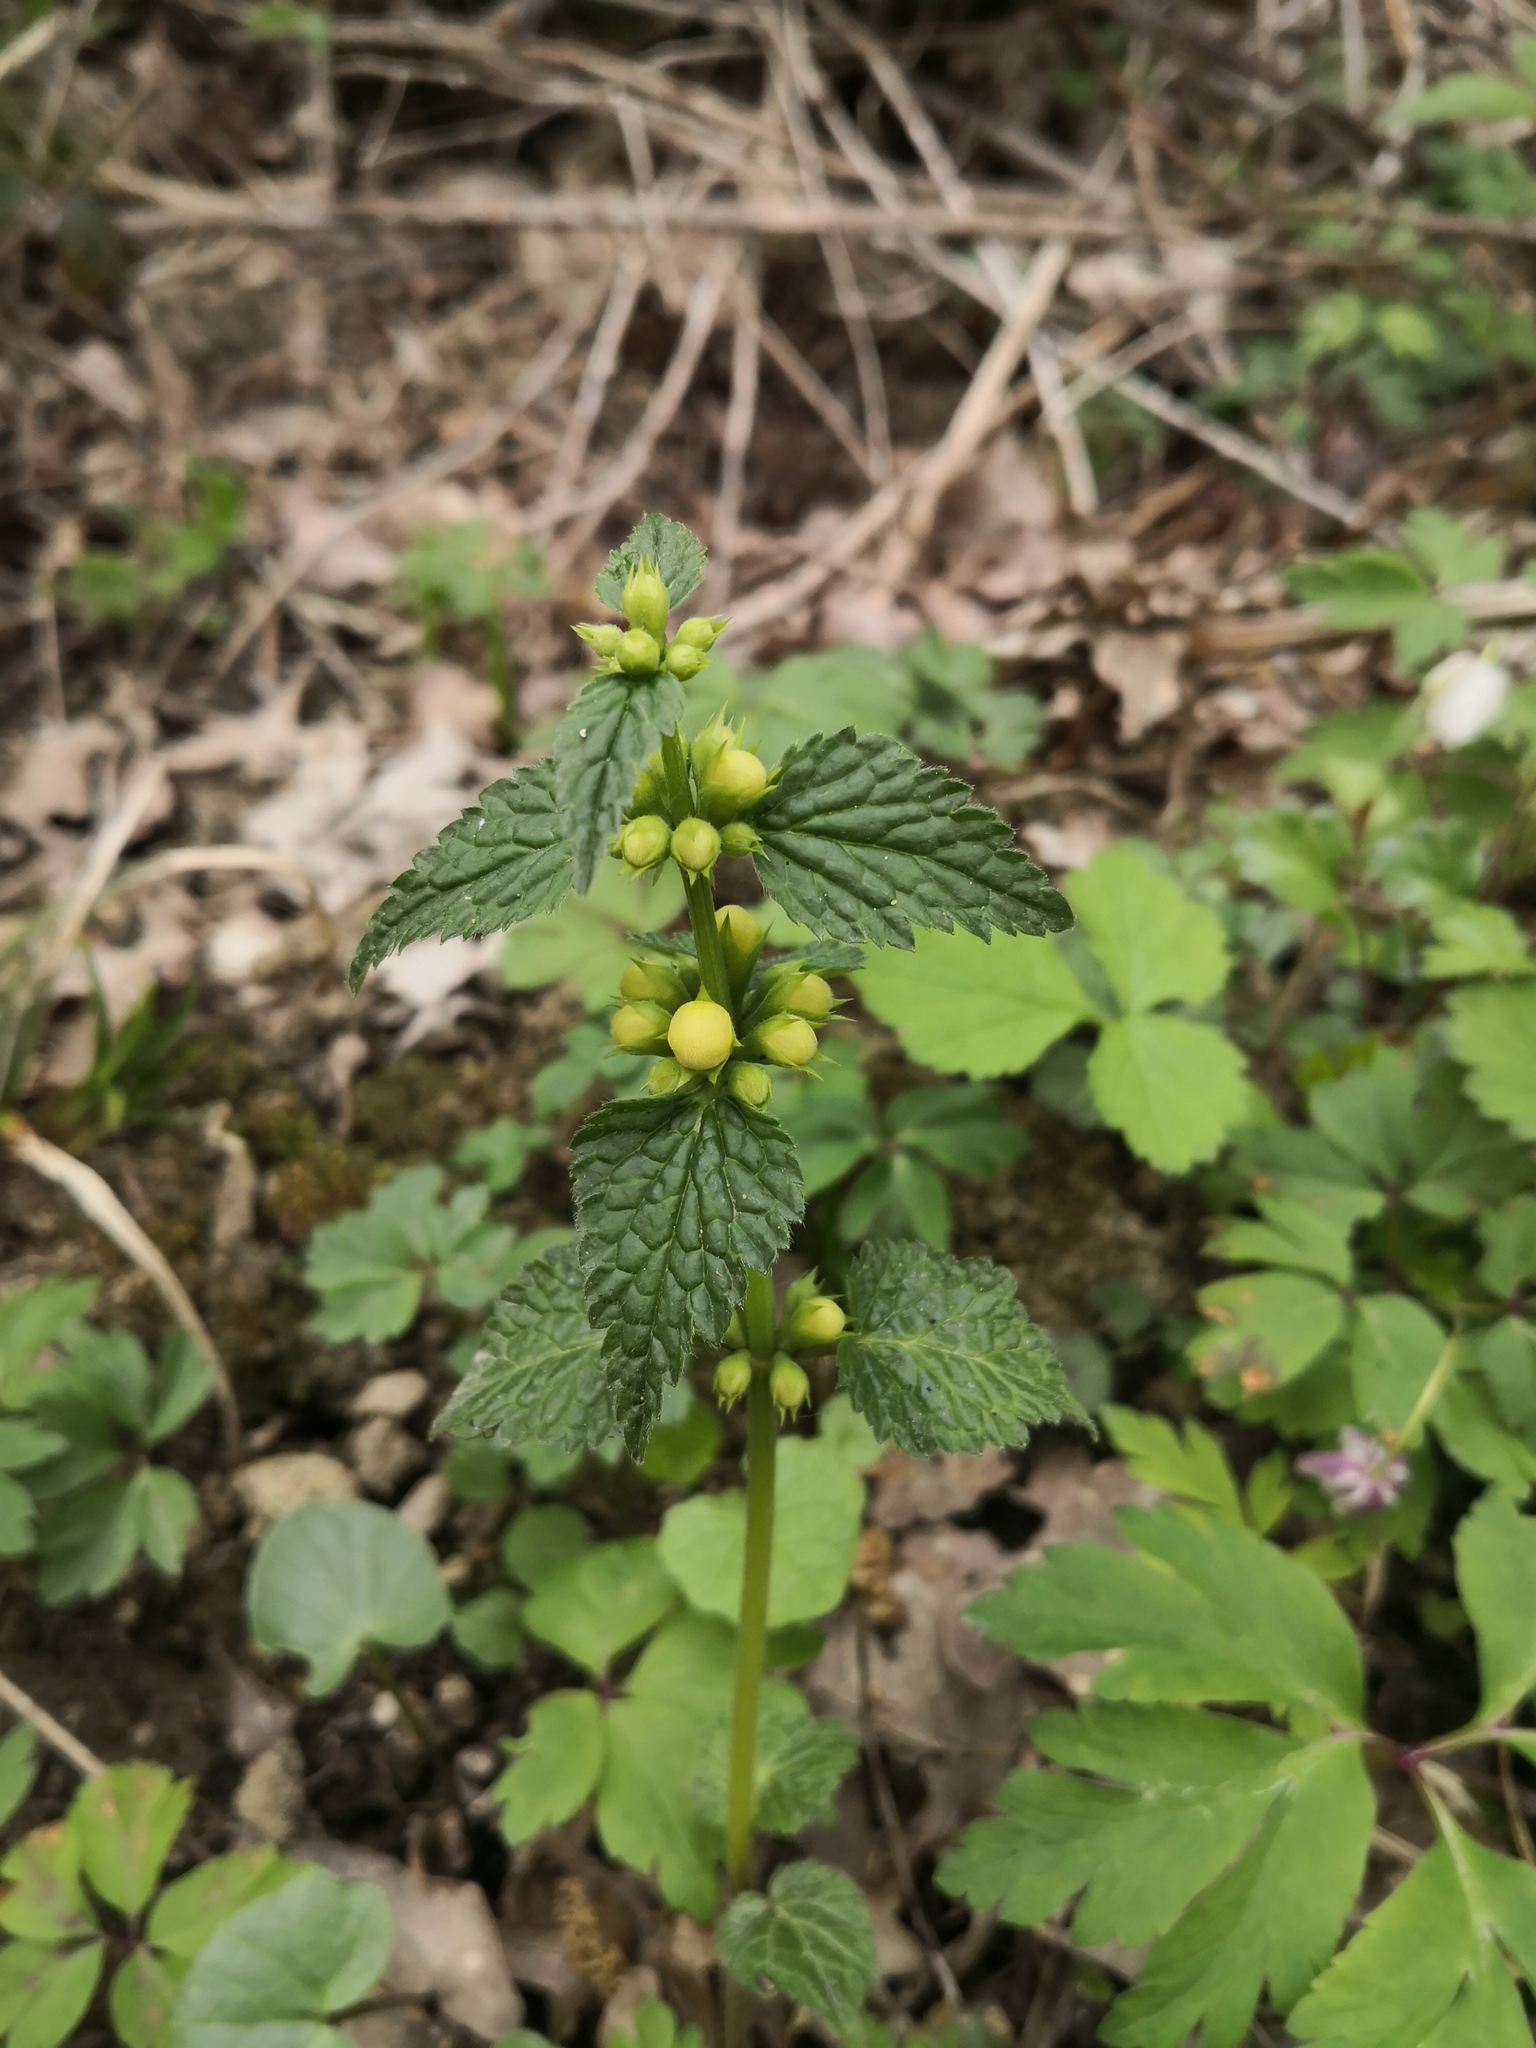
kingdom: Plantae
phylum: Tracheophyta
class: Magnoliopsida
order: Lamiales
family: Lamiaceae
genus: Lamium
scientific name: Lamium galeobdolon
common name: Yellow archangel
